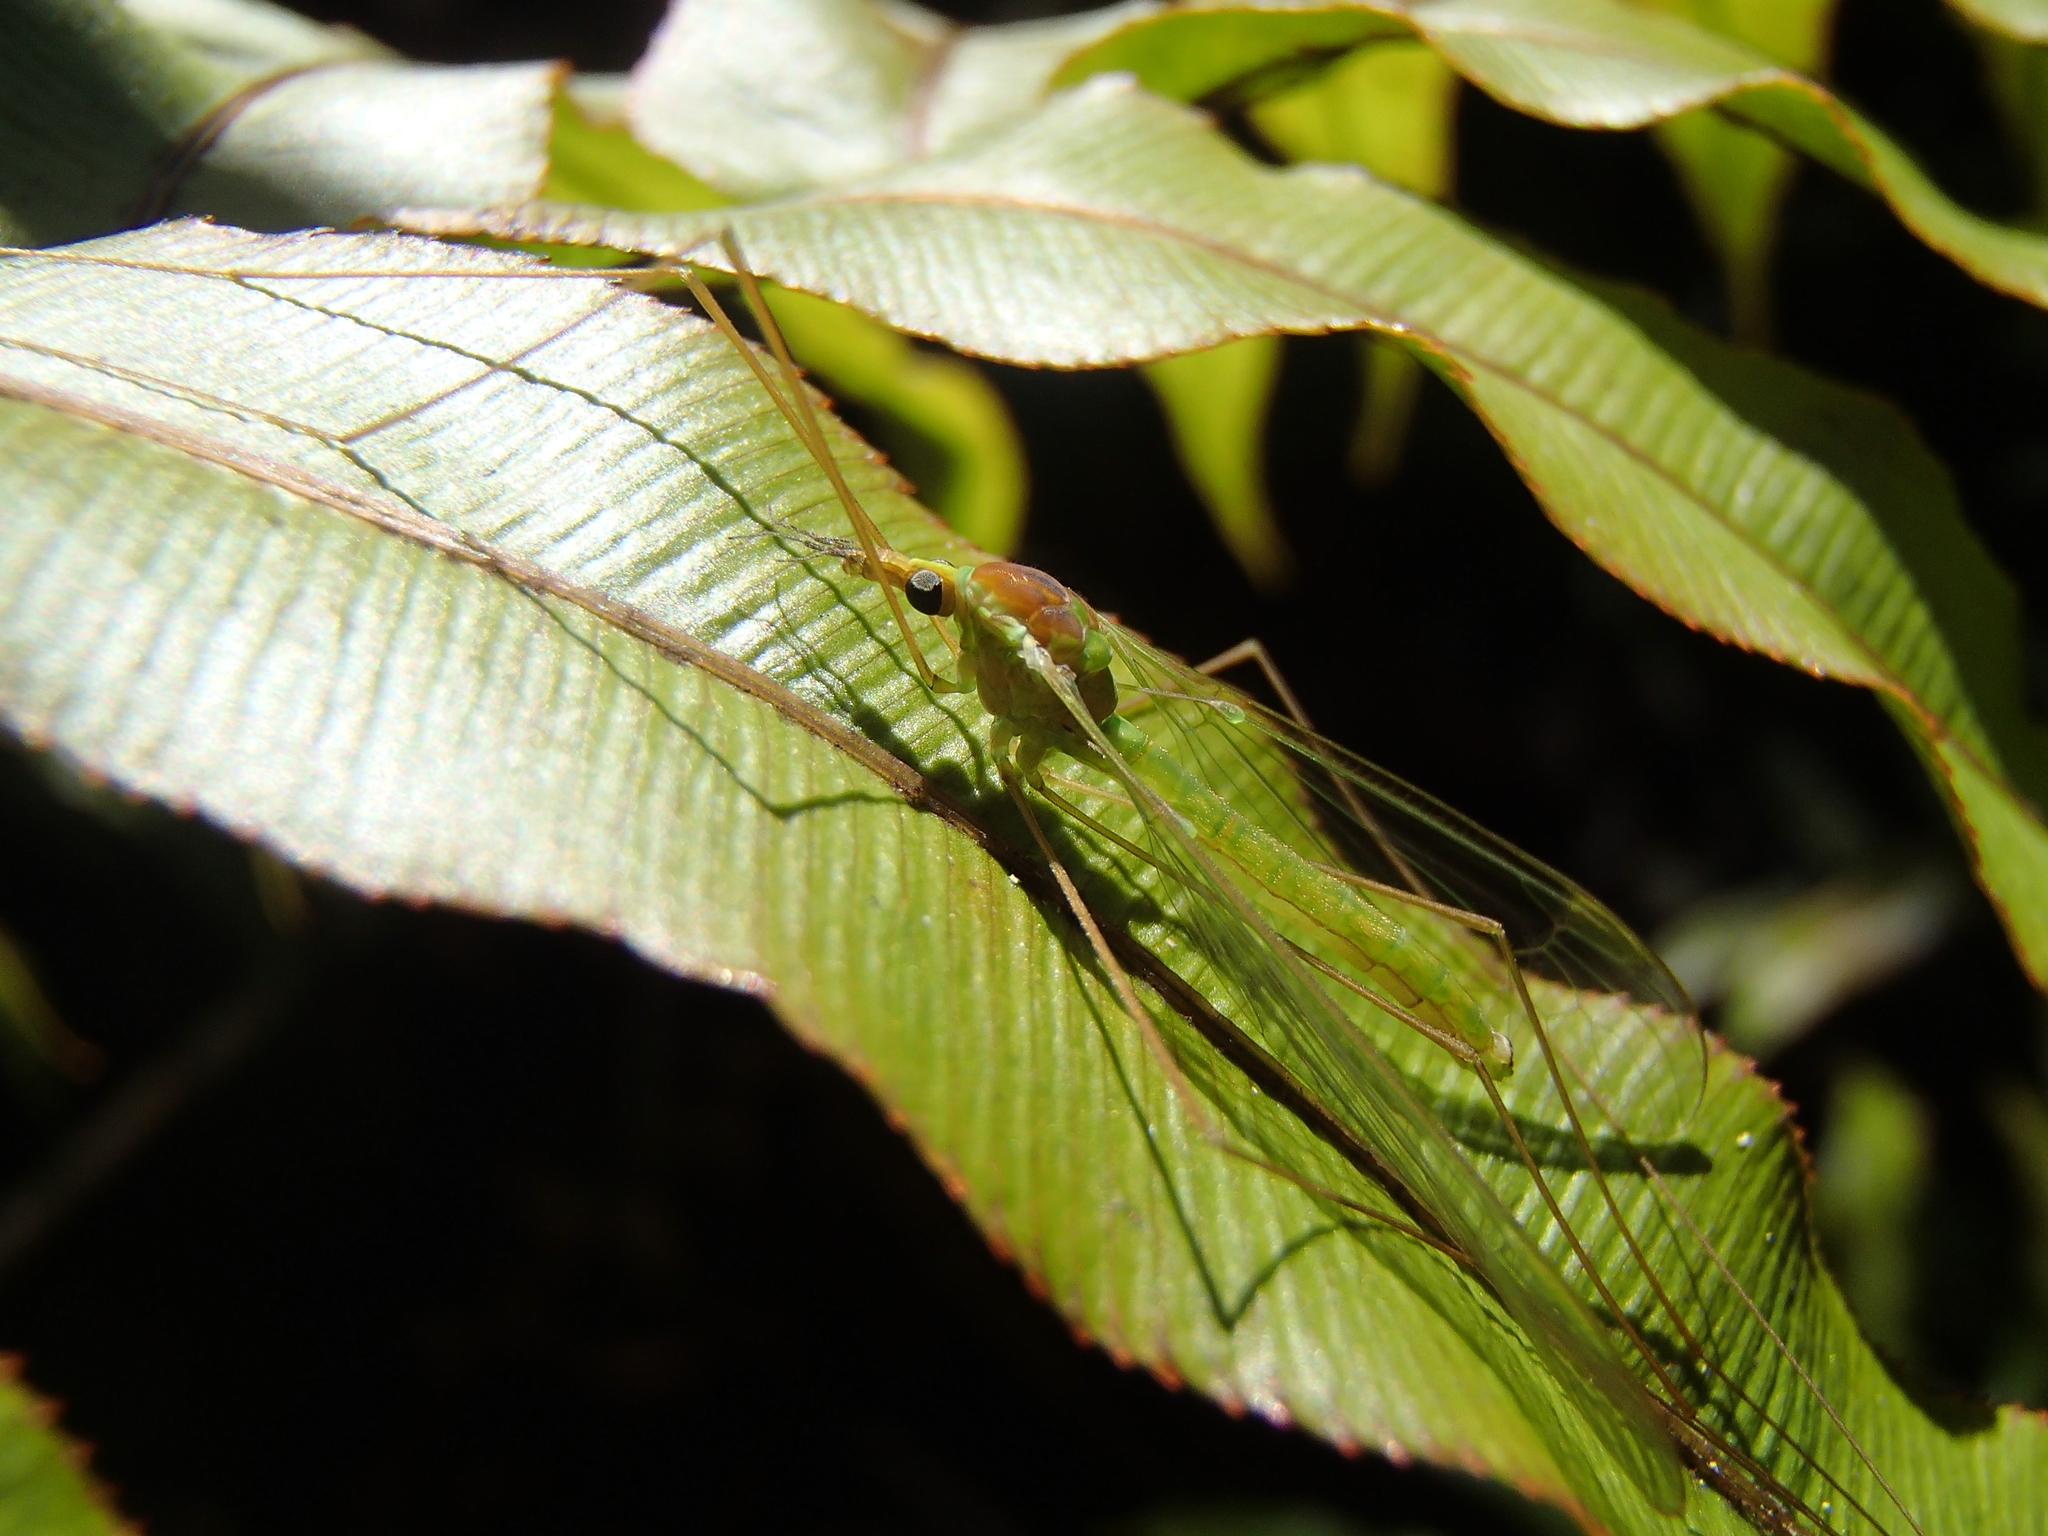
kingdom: Animalia
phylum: Arthropoda
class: Insecta
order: Diptera
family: Tipulidae
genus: Leptotarsus
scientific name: Leptotarsus virescens
